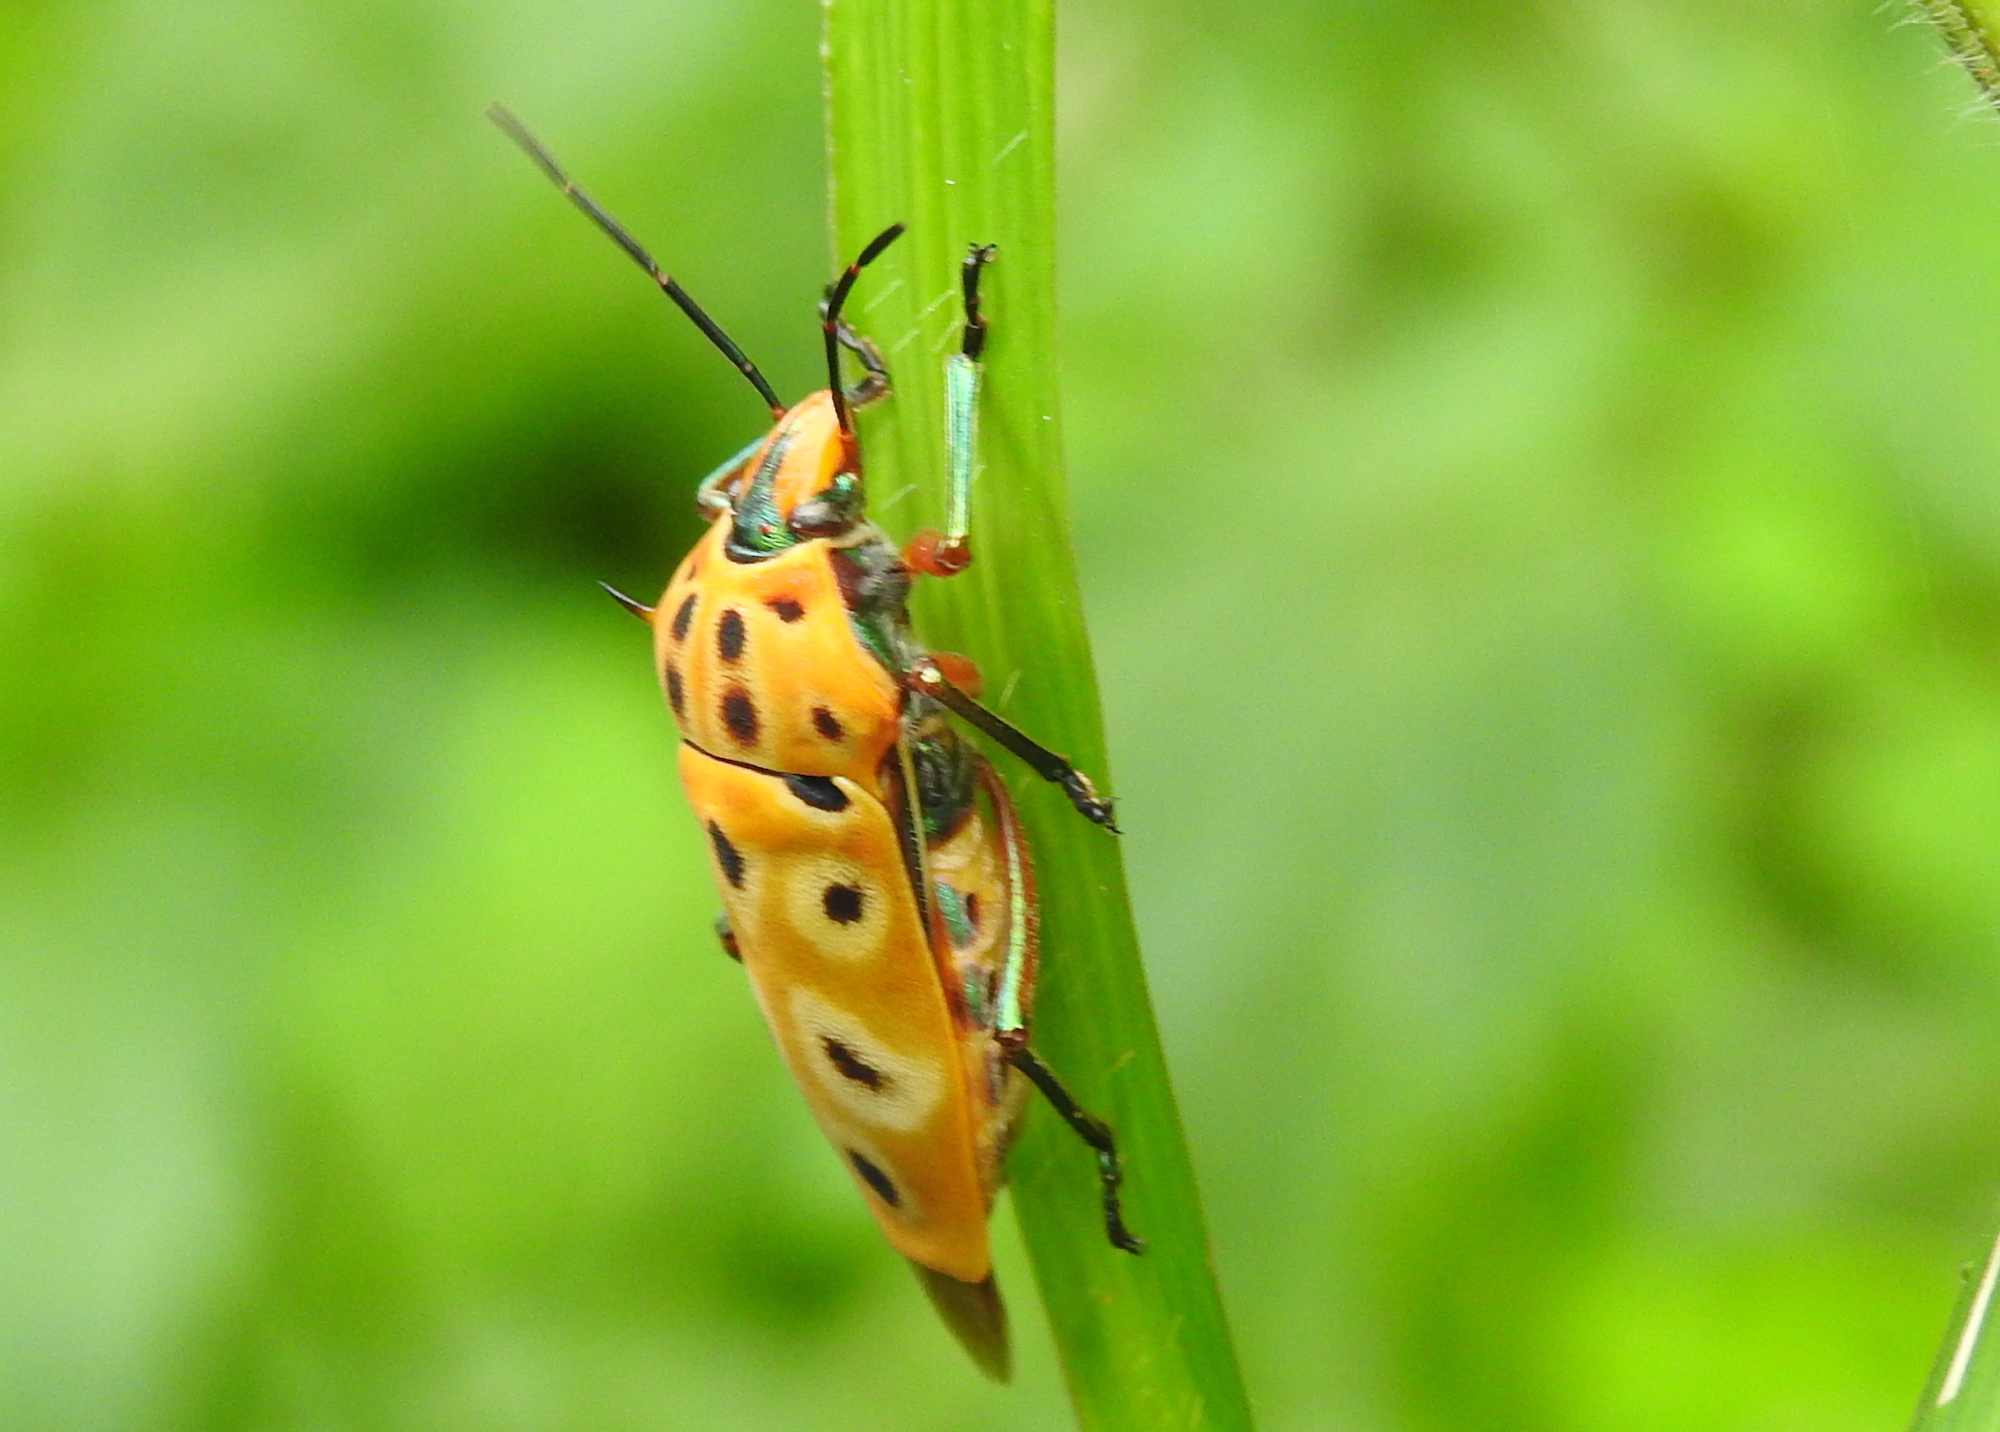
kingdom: Animalia
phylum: Arthropoda
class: Insecta
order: Hemiptera
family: Scutelleridae
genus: Cantao
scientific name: Cantao ocellatus
